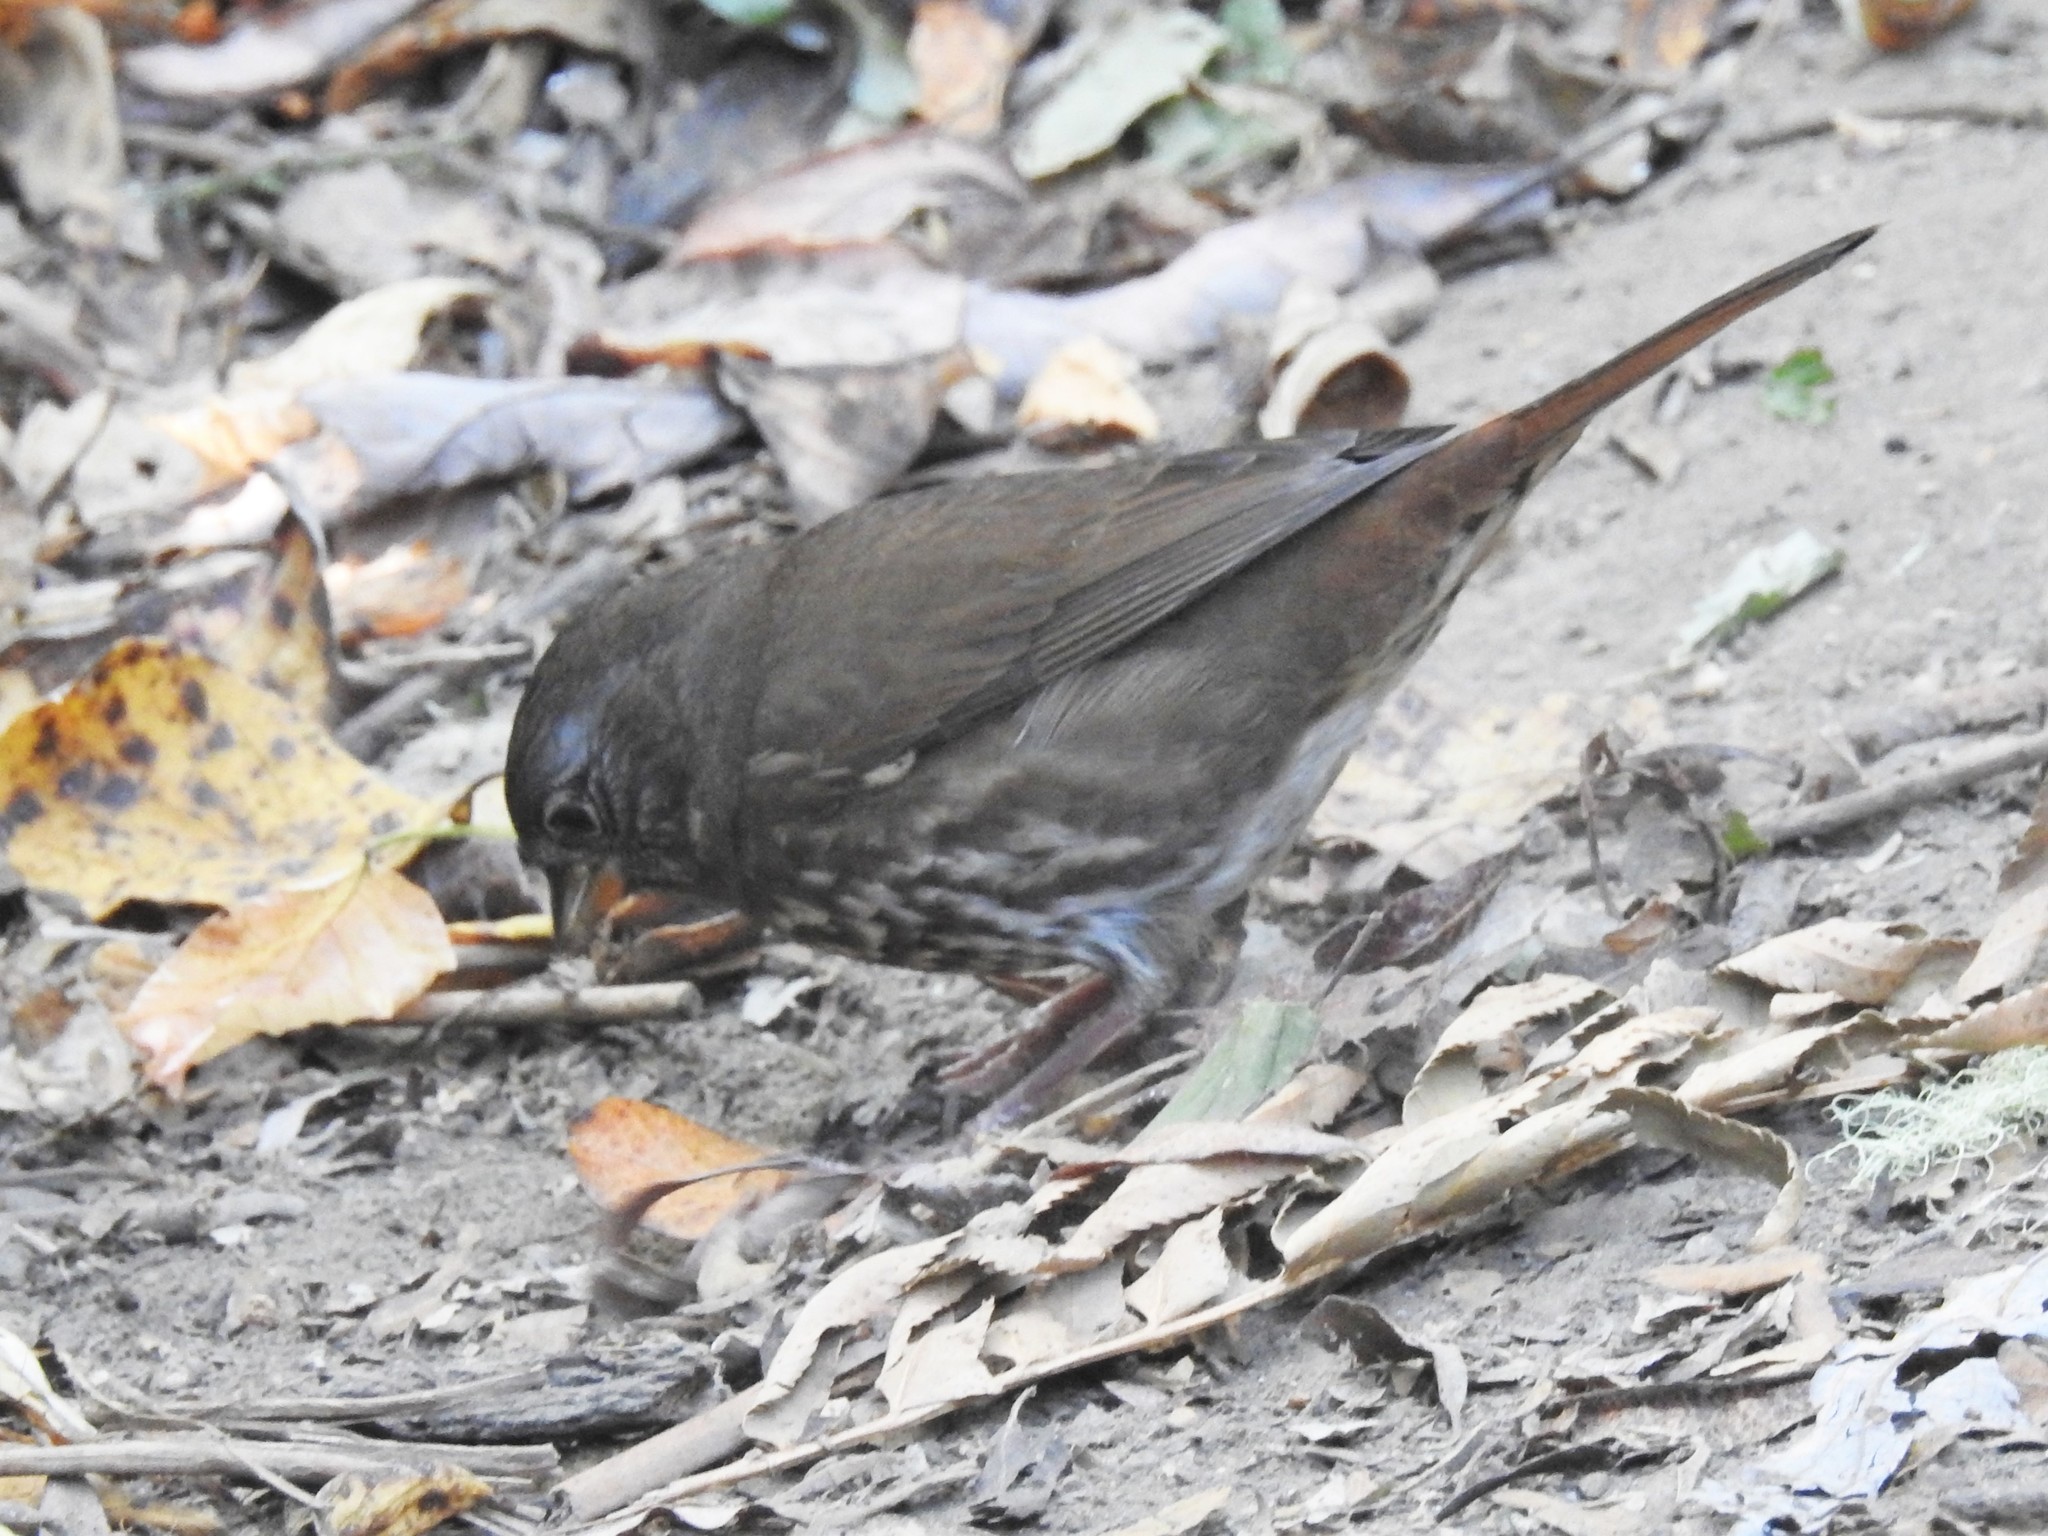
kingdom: Animalia
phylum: Chordata
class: Aves
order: Passeriformes
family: Passerellidae
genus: Passerella
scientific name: Passerella iliaca
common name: Fox sparrow
